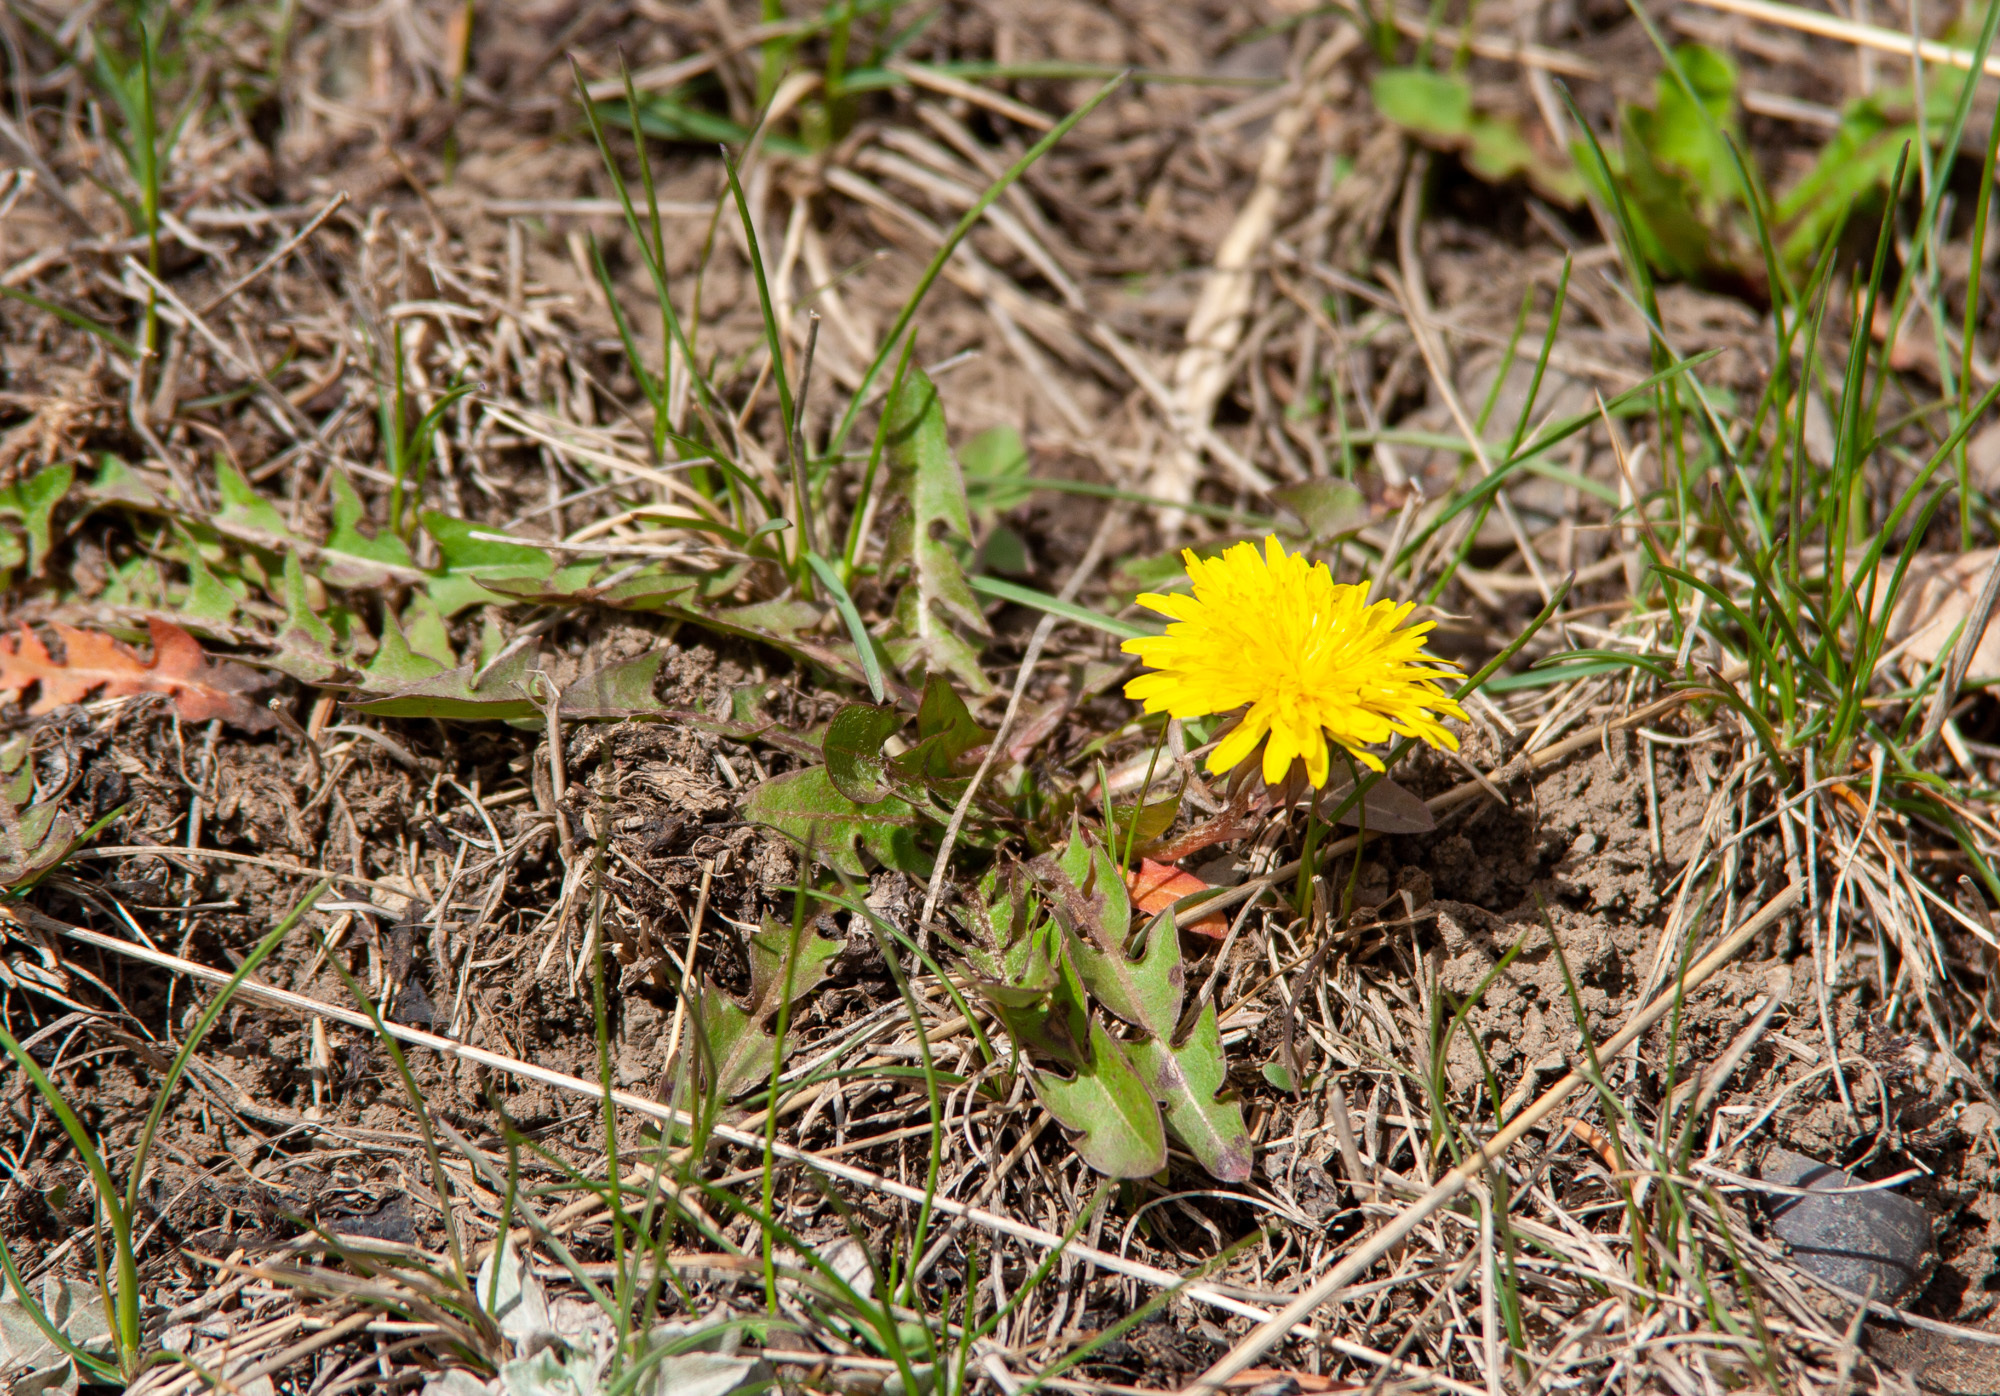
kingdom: Plantae
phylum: Tracheophyta
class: Magnoliopsida
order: Asterales
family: Asteraceae
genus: Taraxacum
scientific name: Taraxacum officinale
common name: Common dandelion
